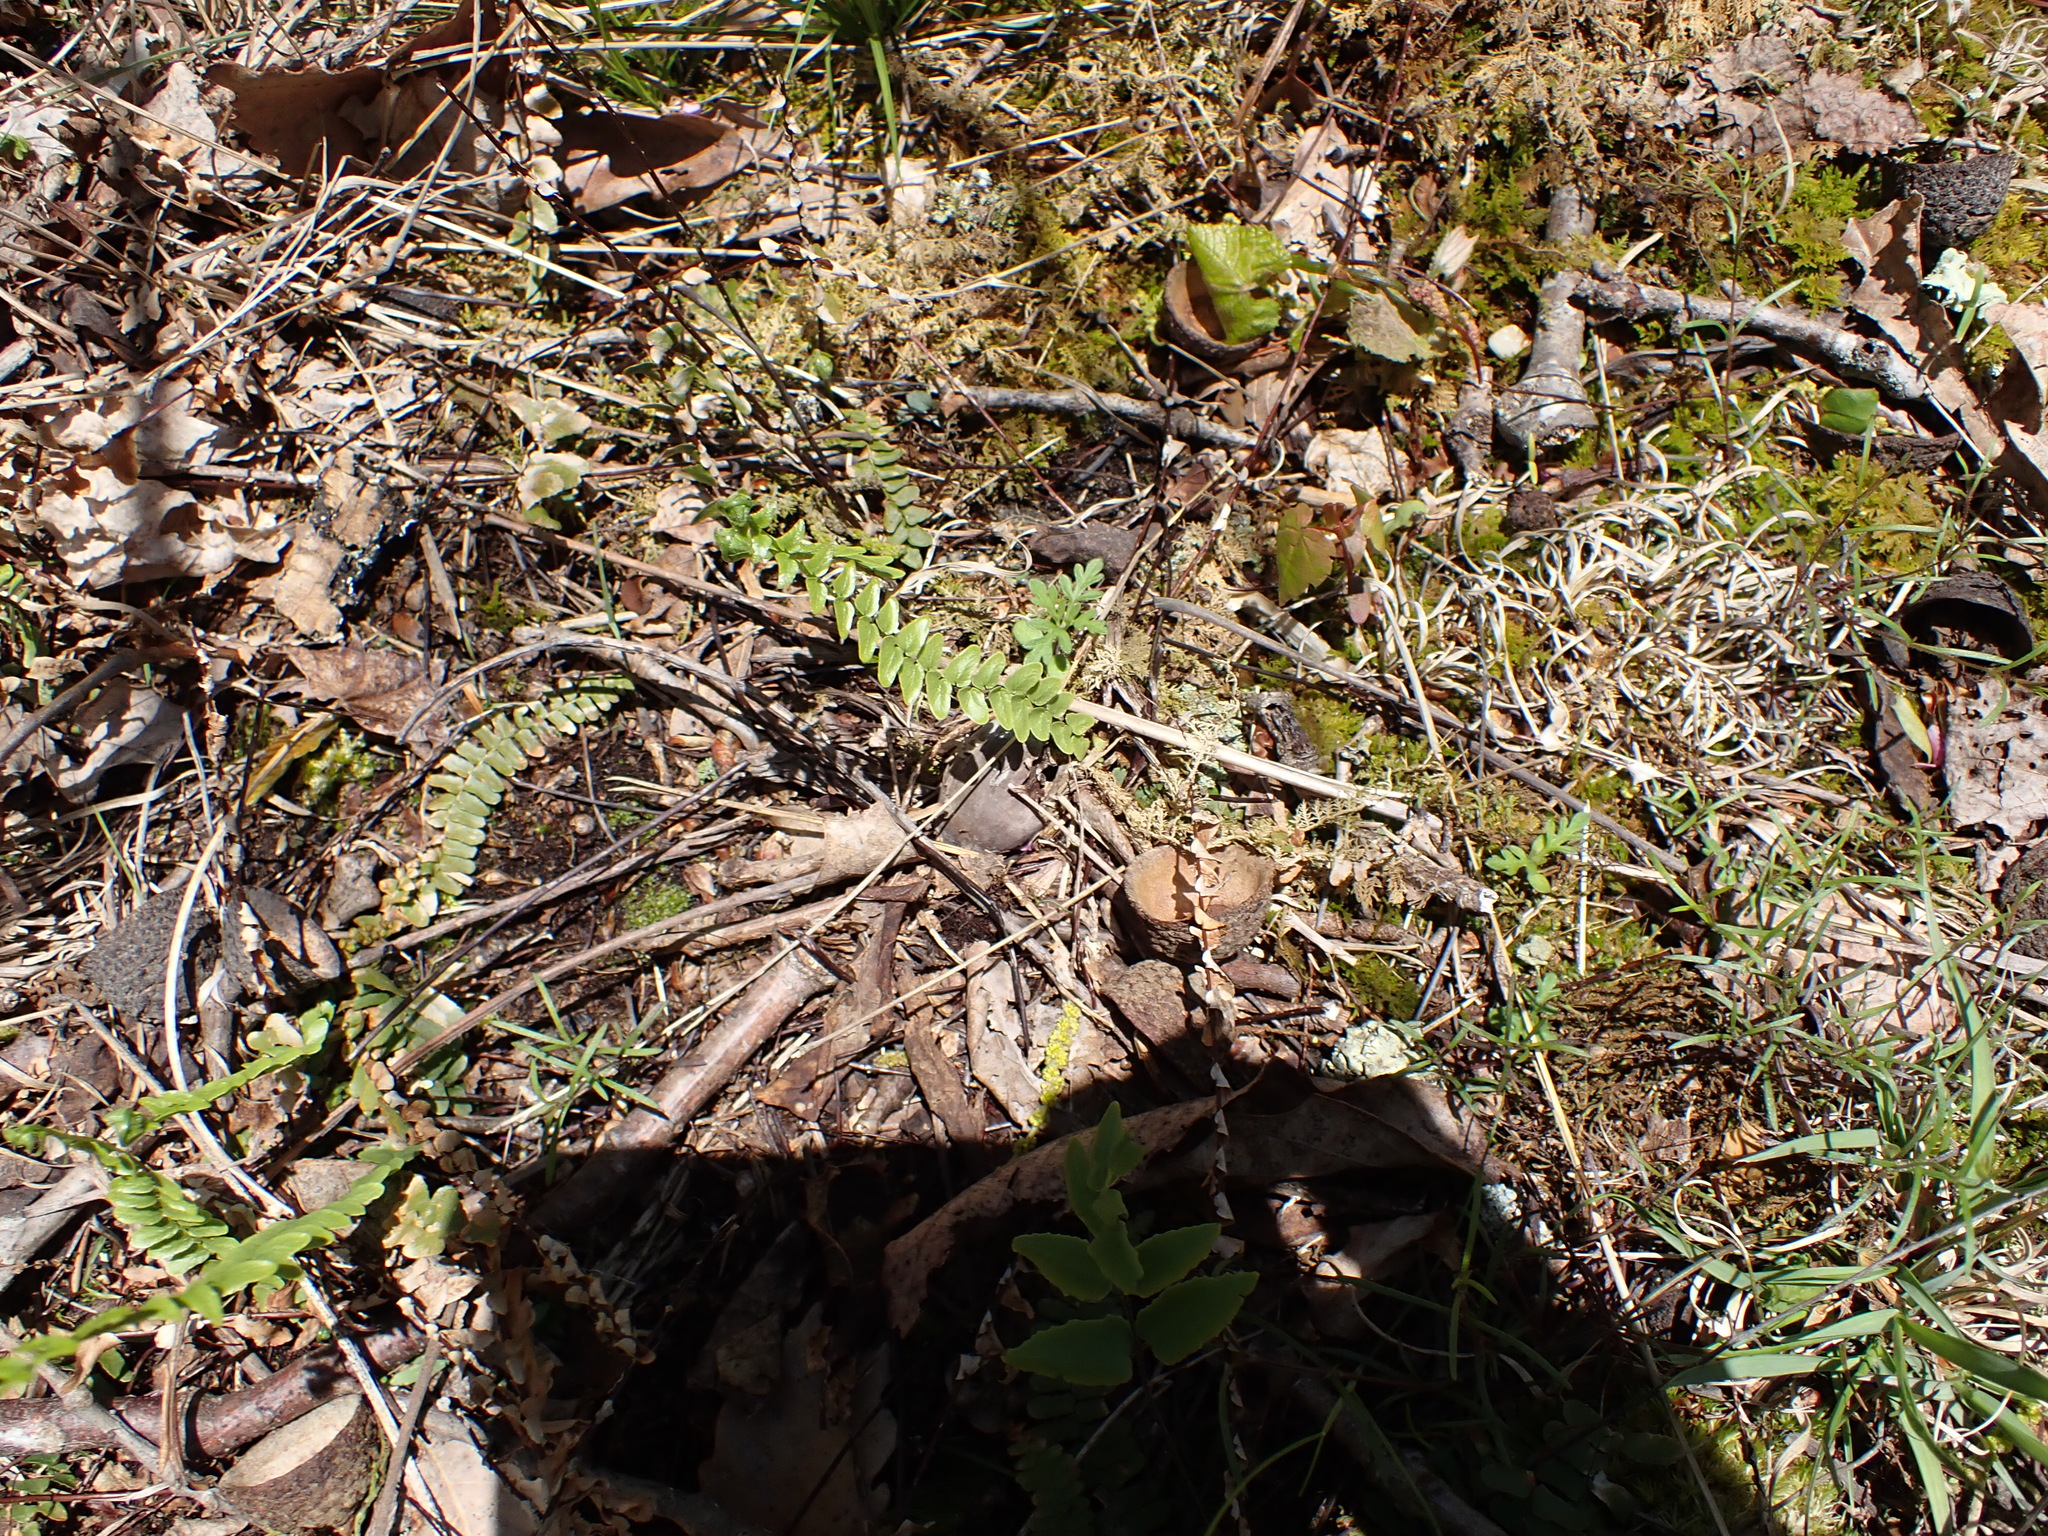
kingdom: Plantae
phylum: Tracheophyta
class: Polypodiopsida
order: Polypodiales
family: Aspleniaceae
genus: Asplenium
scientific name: Asplenium platyneuron
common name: Ebony spleenwort
